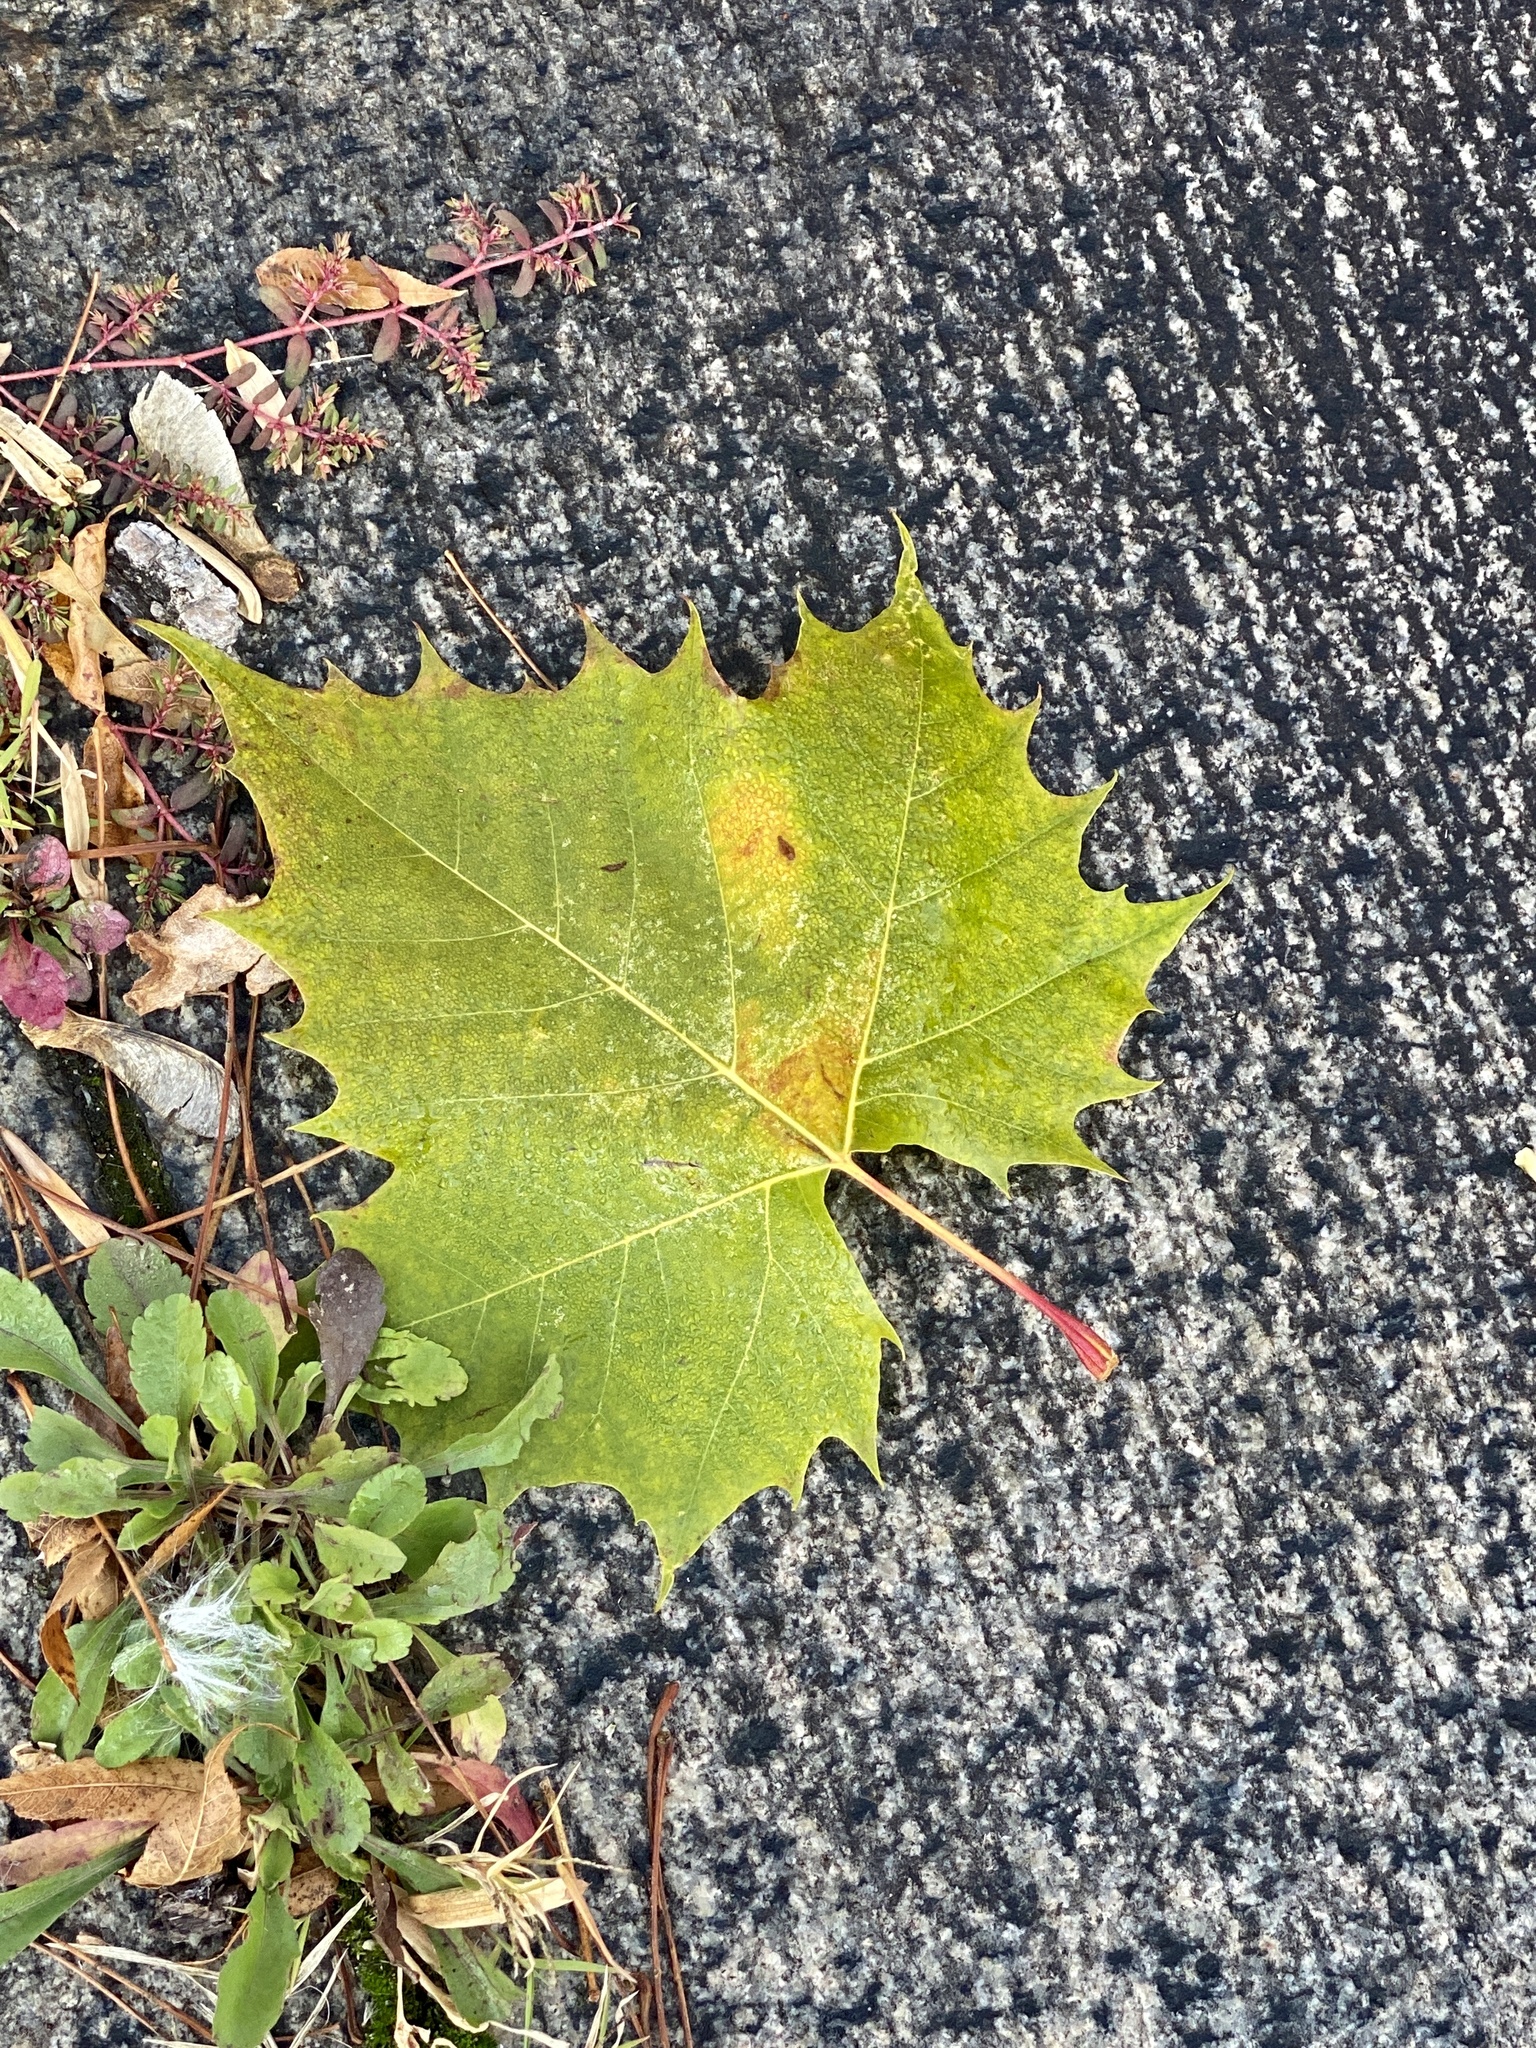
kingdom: Plantae
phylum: Tracheophyta
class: Magnoliopsida
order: Proteales
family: Platanaceae
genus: Platanus
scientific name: Platanus occidentalis
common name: American sycamore
